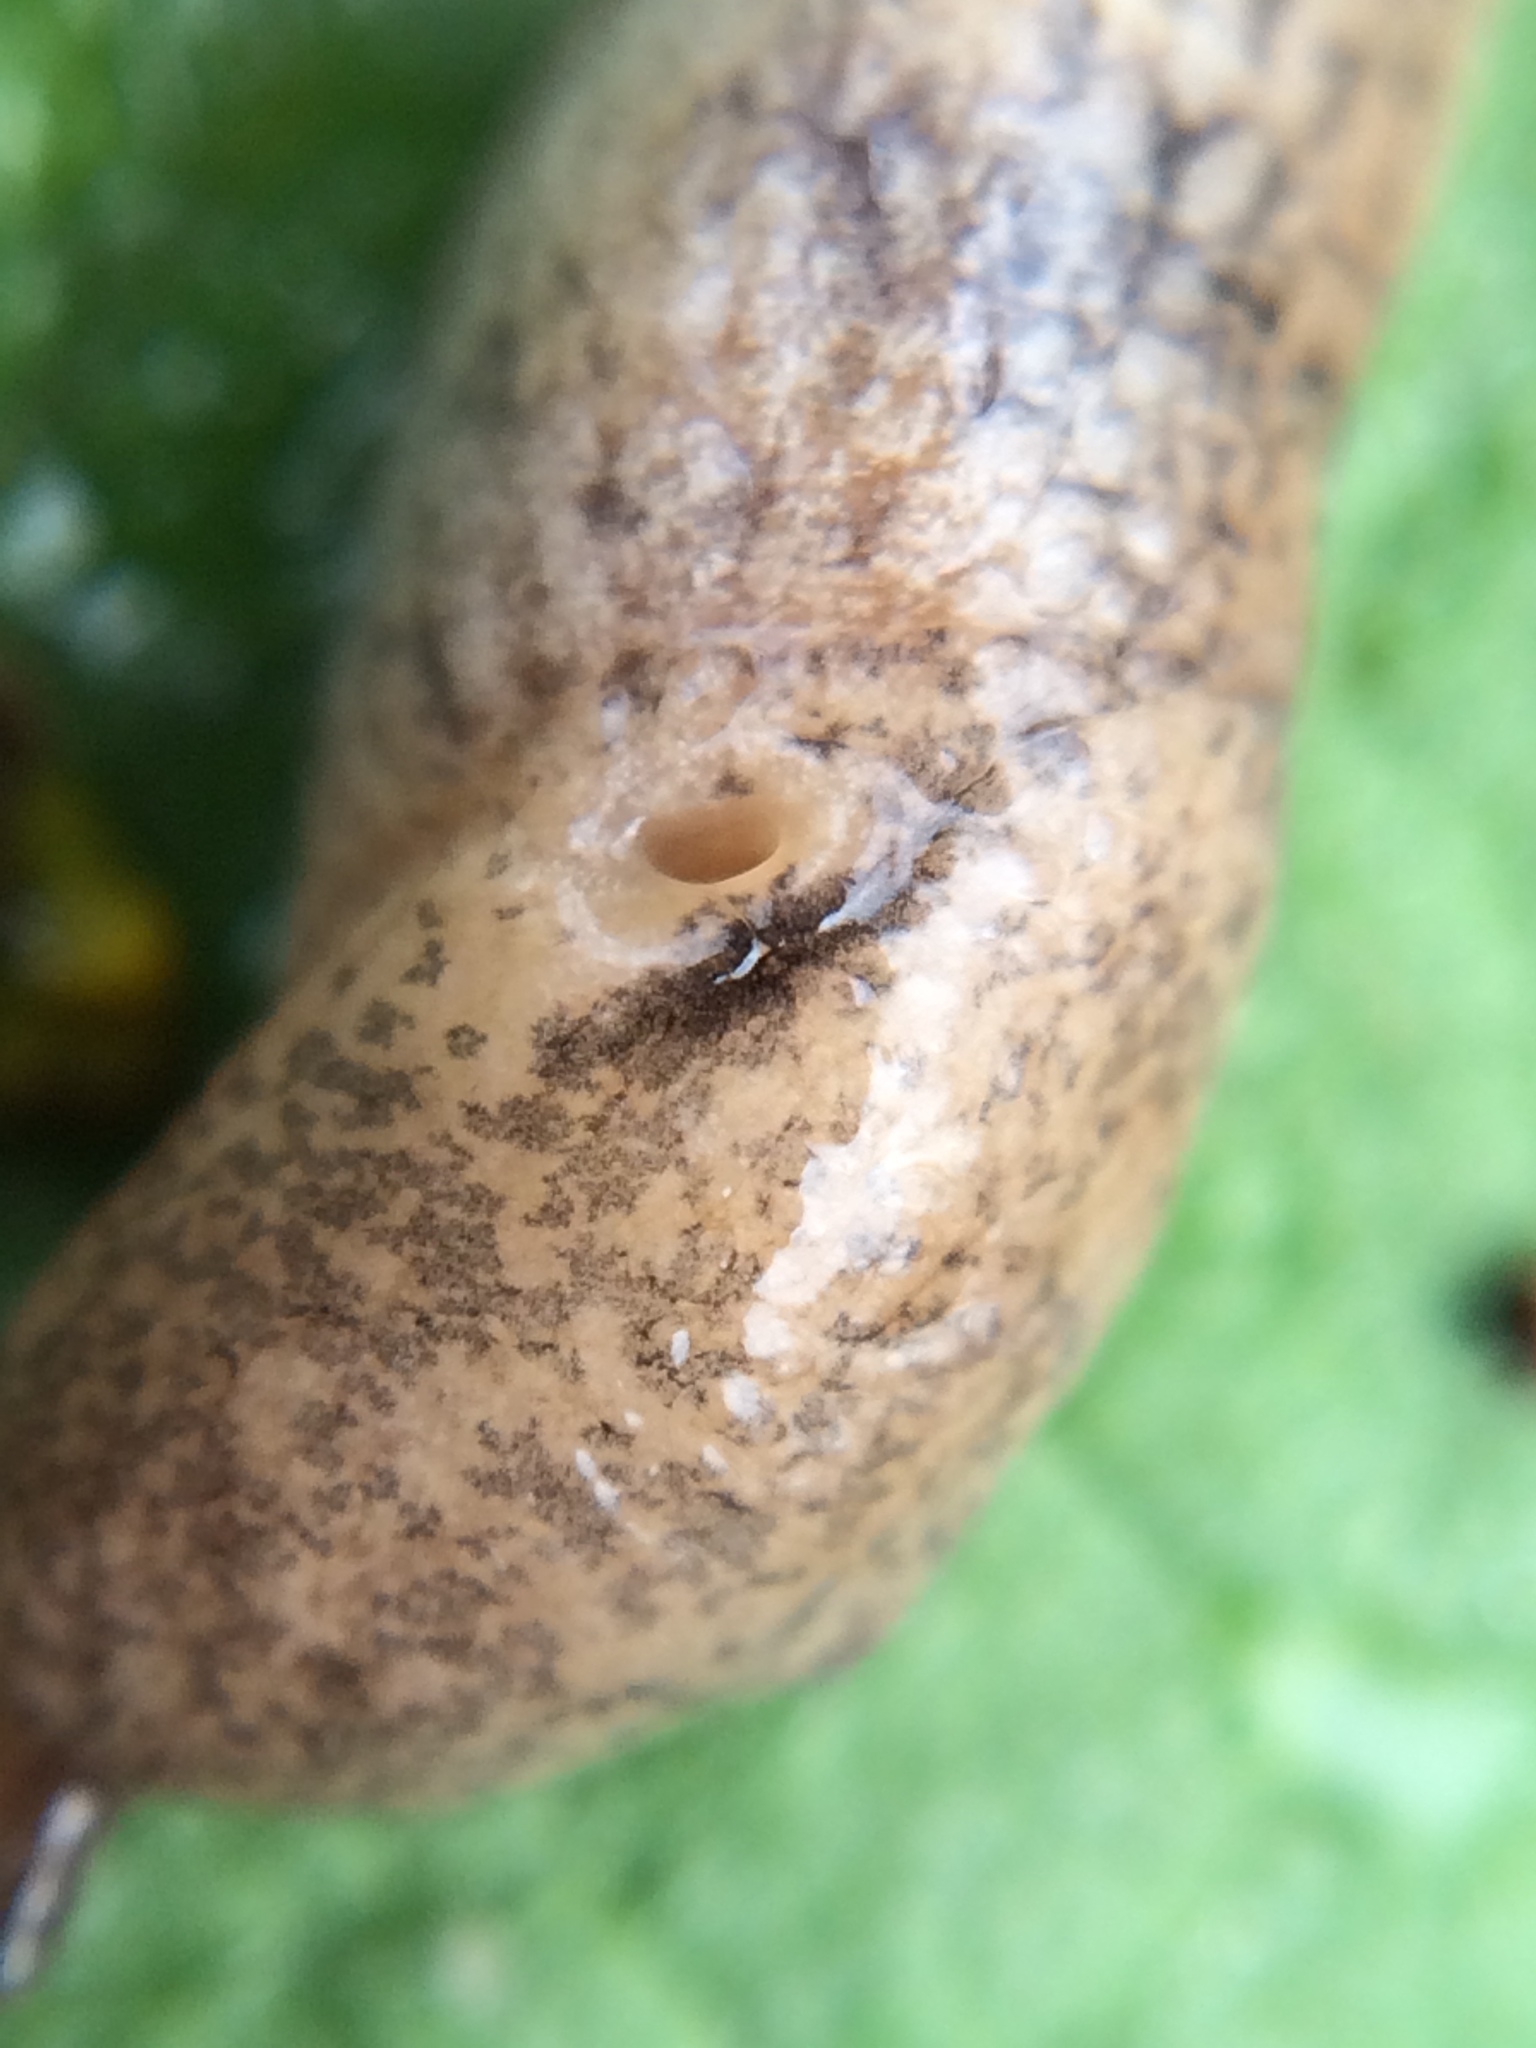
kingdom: Animalia
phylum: Mollusca
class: Gastropoda
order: Stylommatophora
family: Agriolimacidae
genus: Deroceras
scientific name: Deroceras reticulatum
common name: Gray field slug
